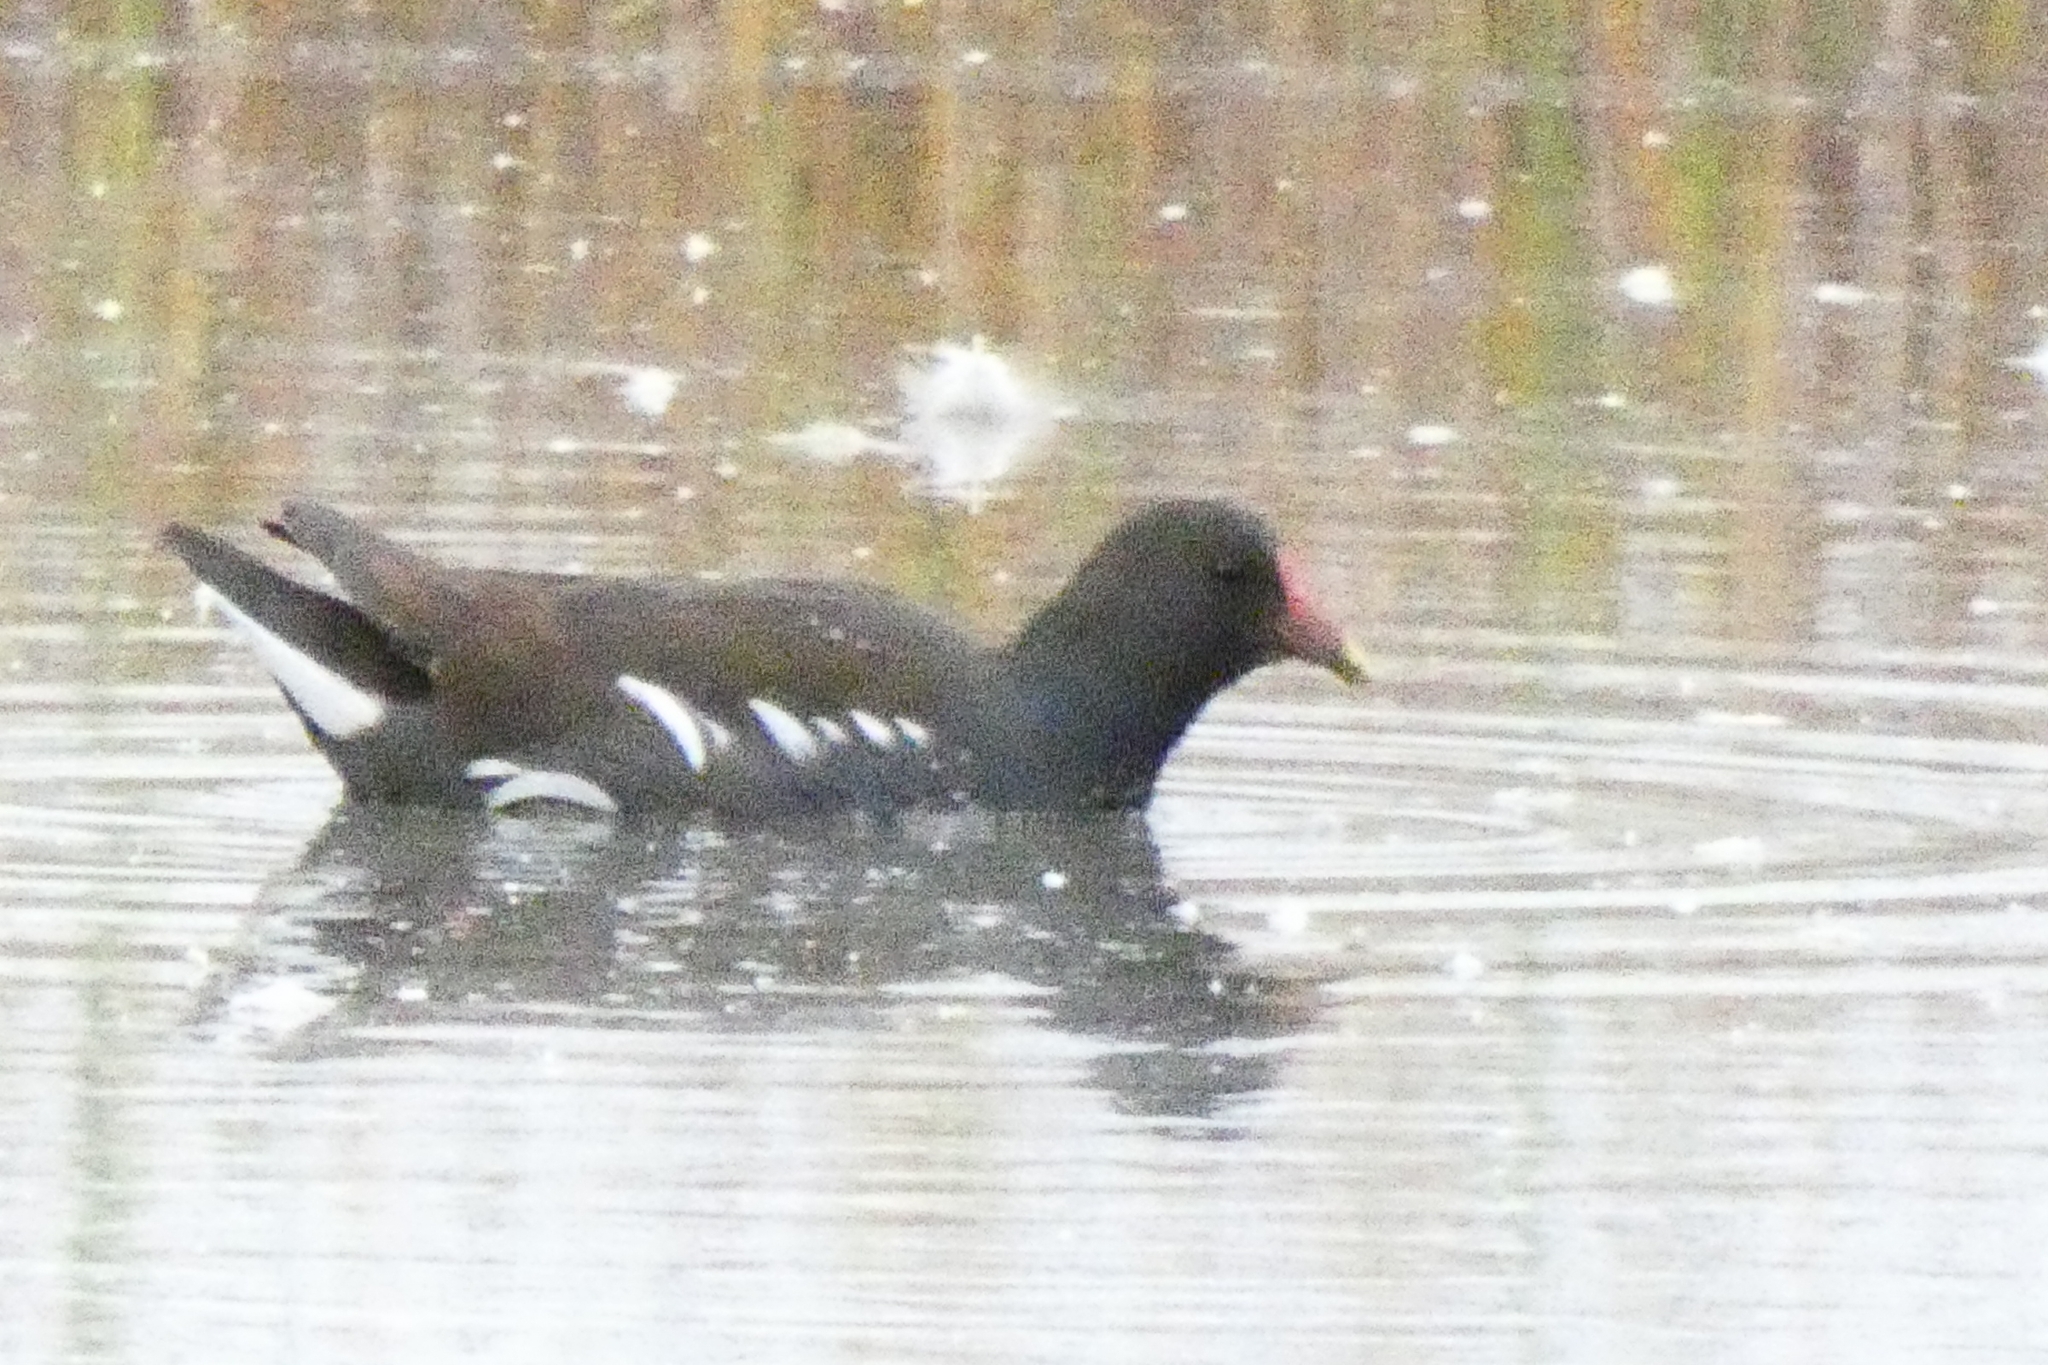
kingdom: Animalia
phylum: Chordata
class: Aves
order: Gruiformes
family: Rallidae
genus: Gallinula
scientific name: Gallinula chloropus
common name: Common moorhen
